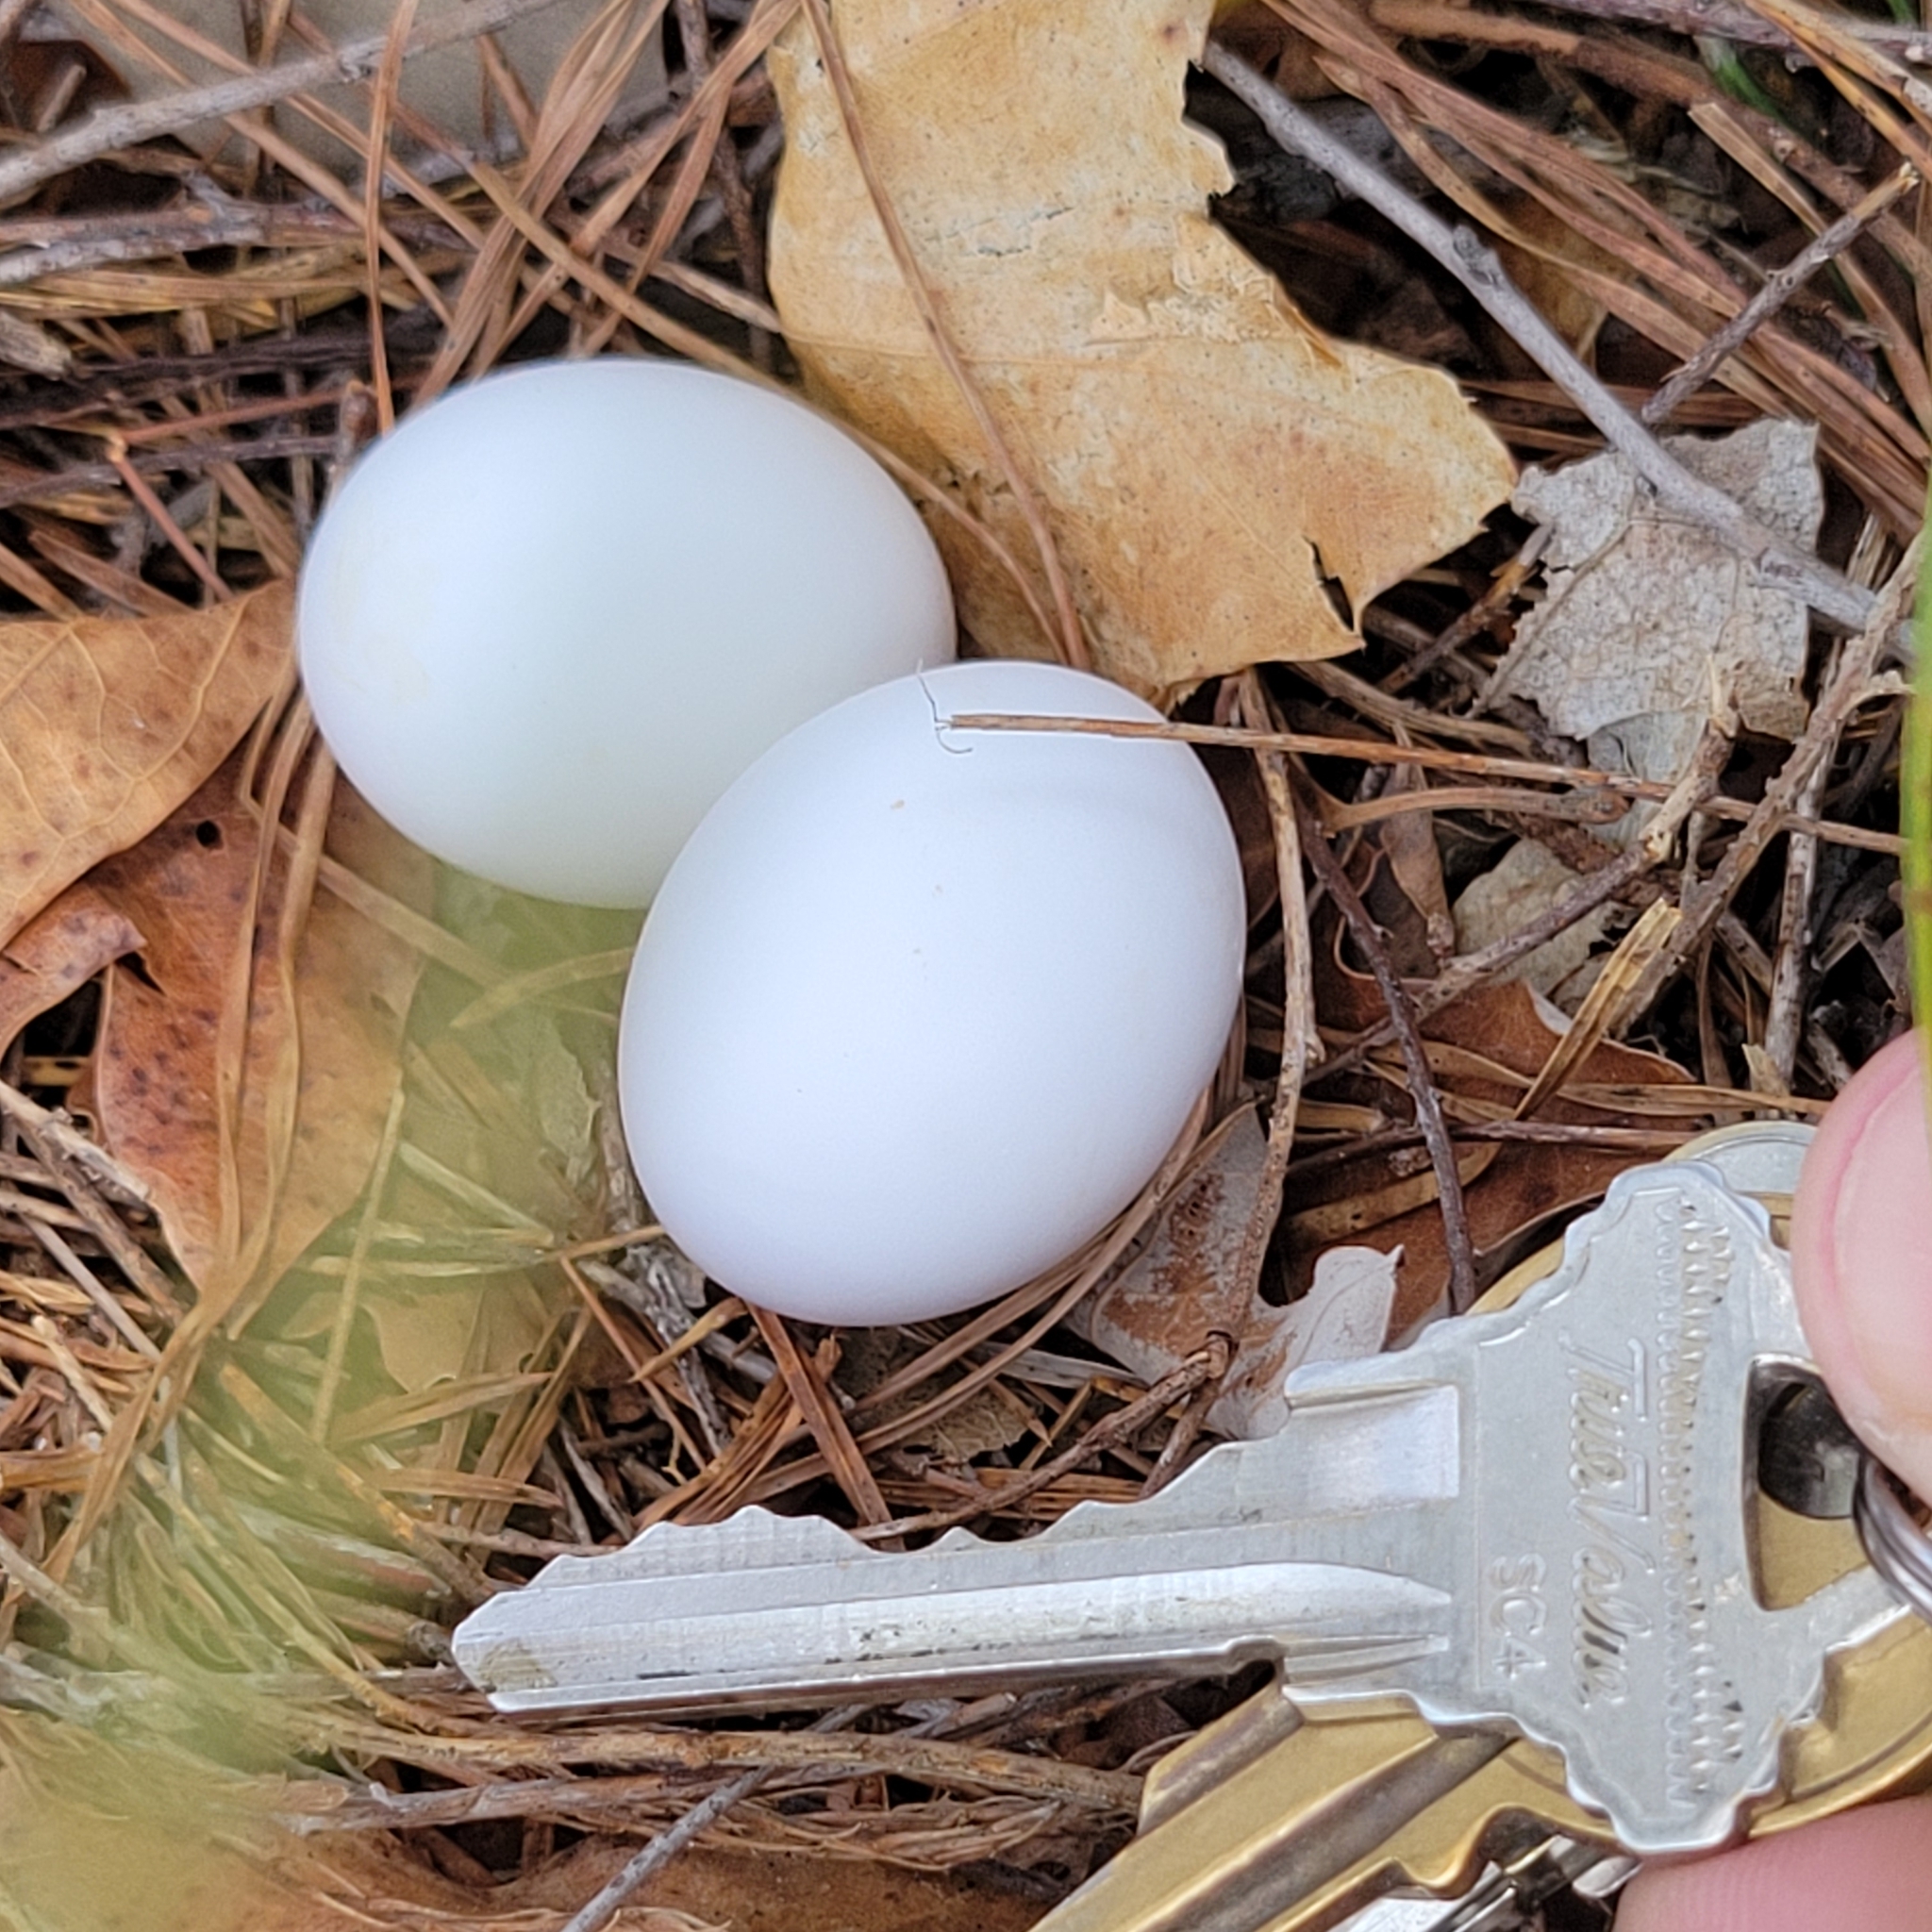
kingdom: Animalia
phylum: Chordata
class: Aves
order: Columbiformes
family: Columbidae
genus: Zenaida
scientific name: Zenaida macroura
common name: Mourning dove
